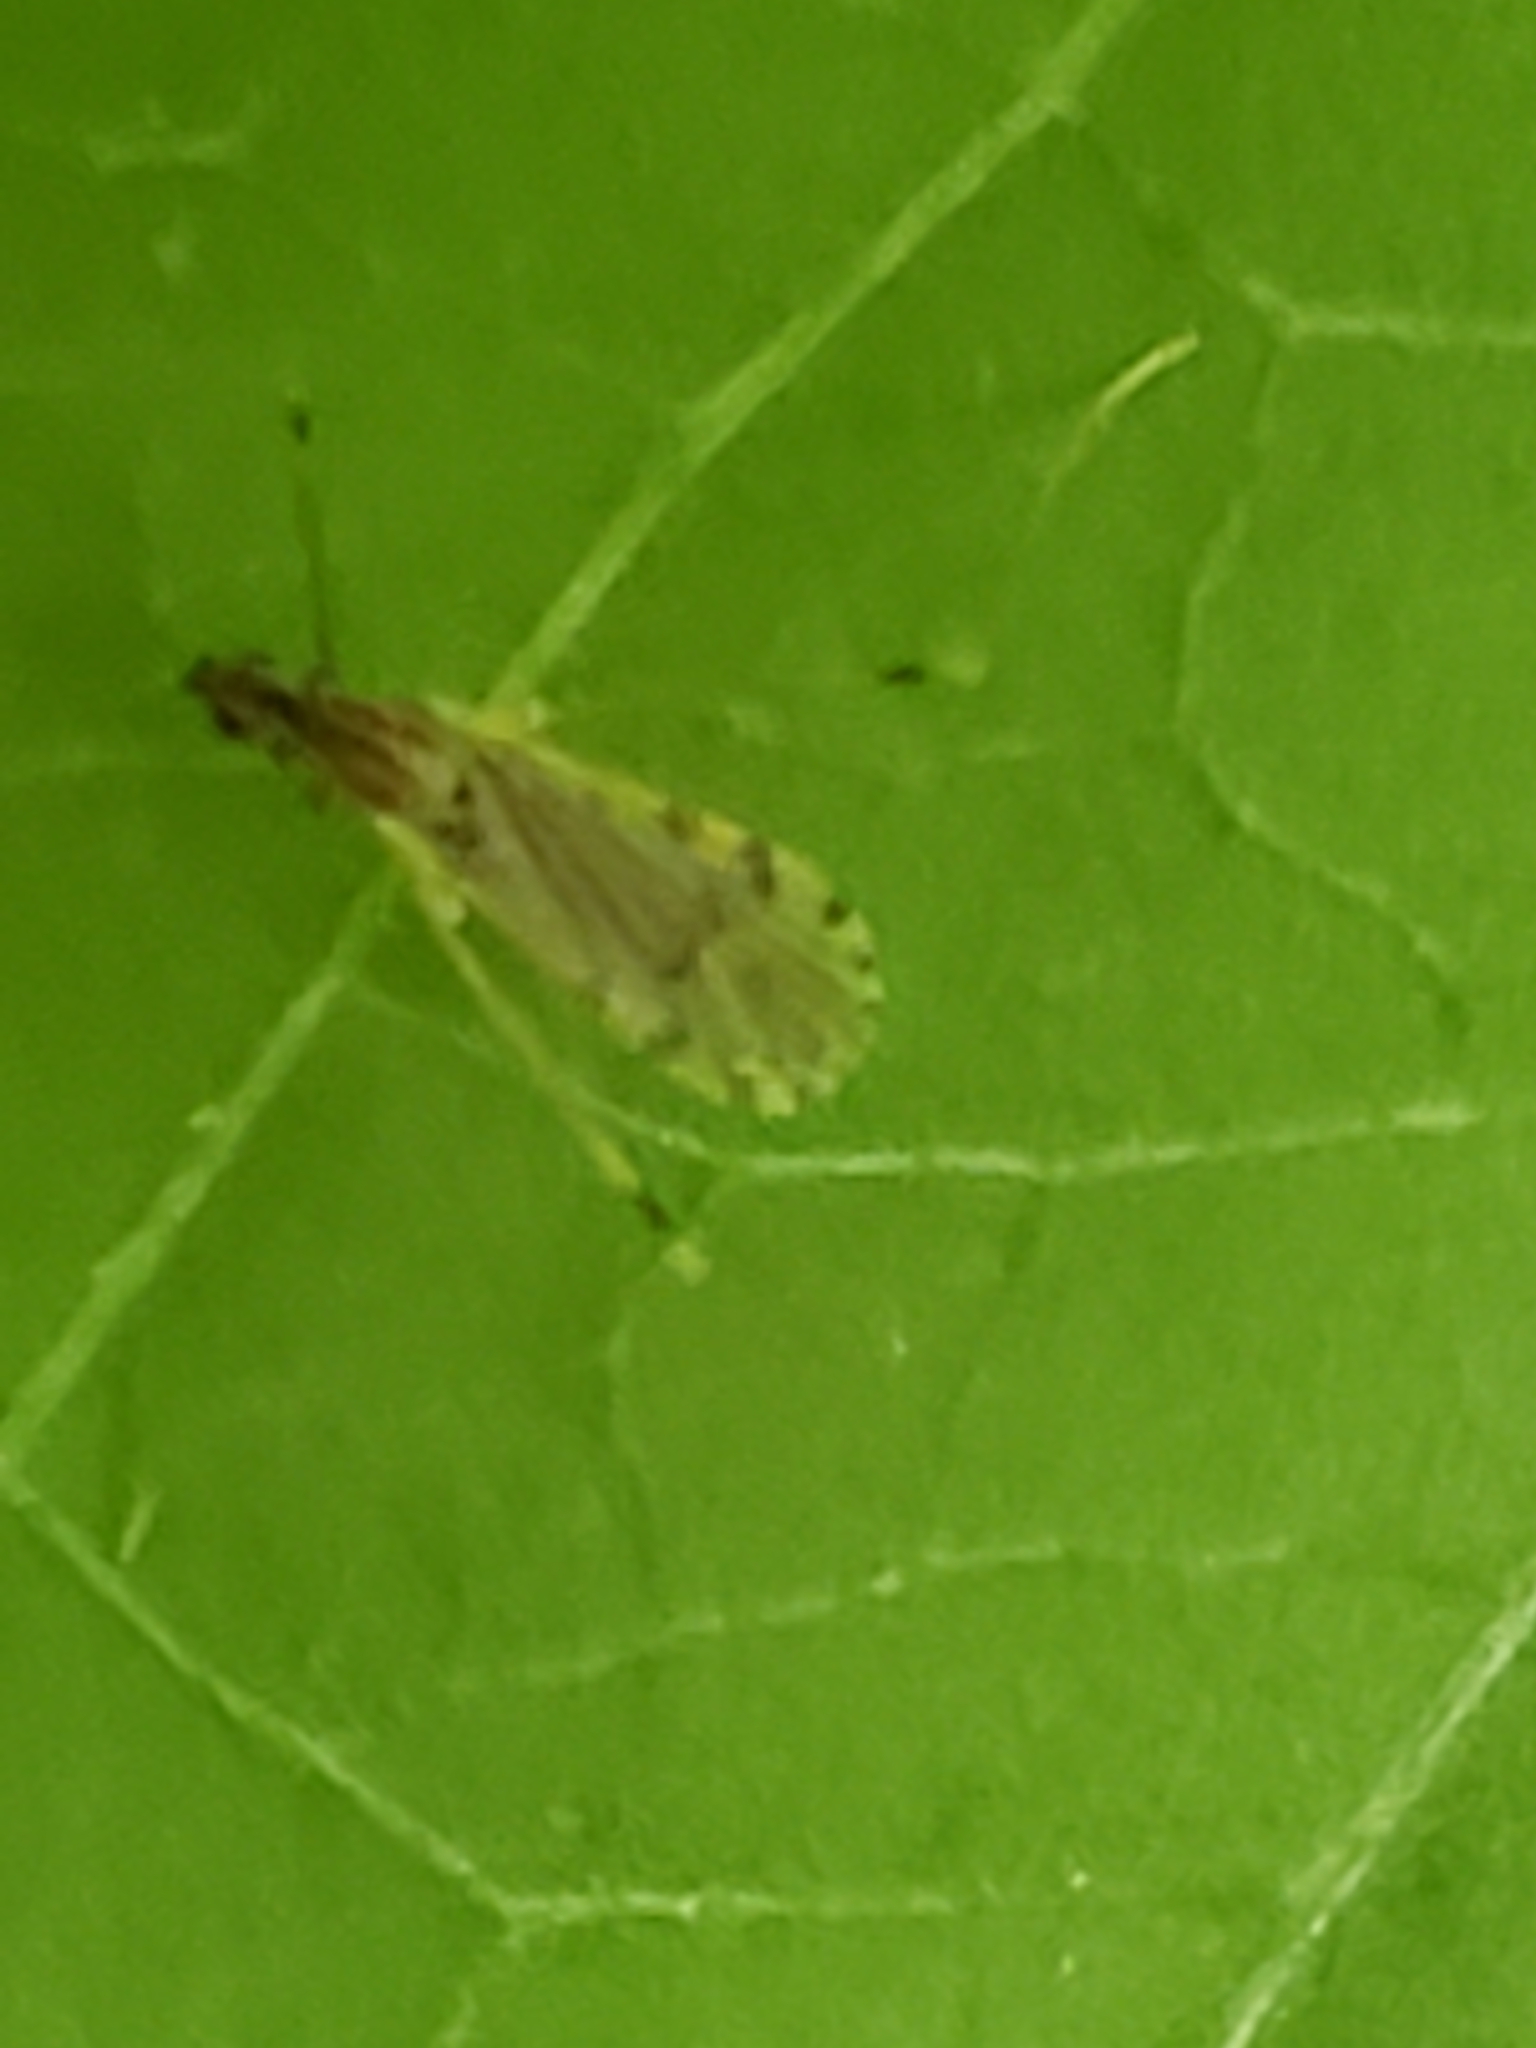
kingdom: Animalia
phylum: Arthropoda
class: Insecta
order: Diptera
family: Limoniidae
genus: Erioptera
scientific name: Erioptera parva
